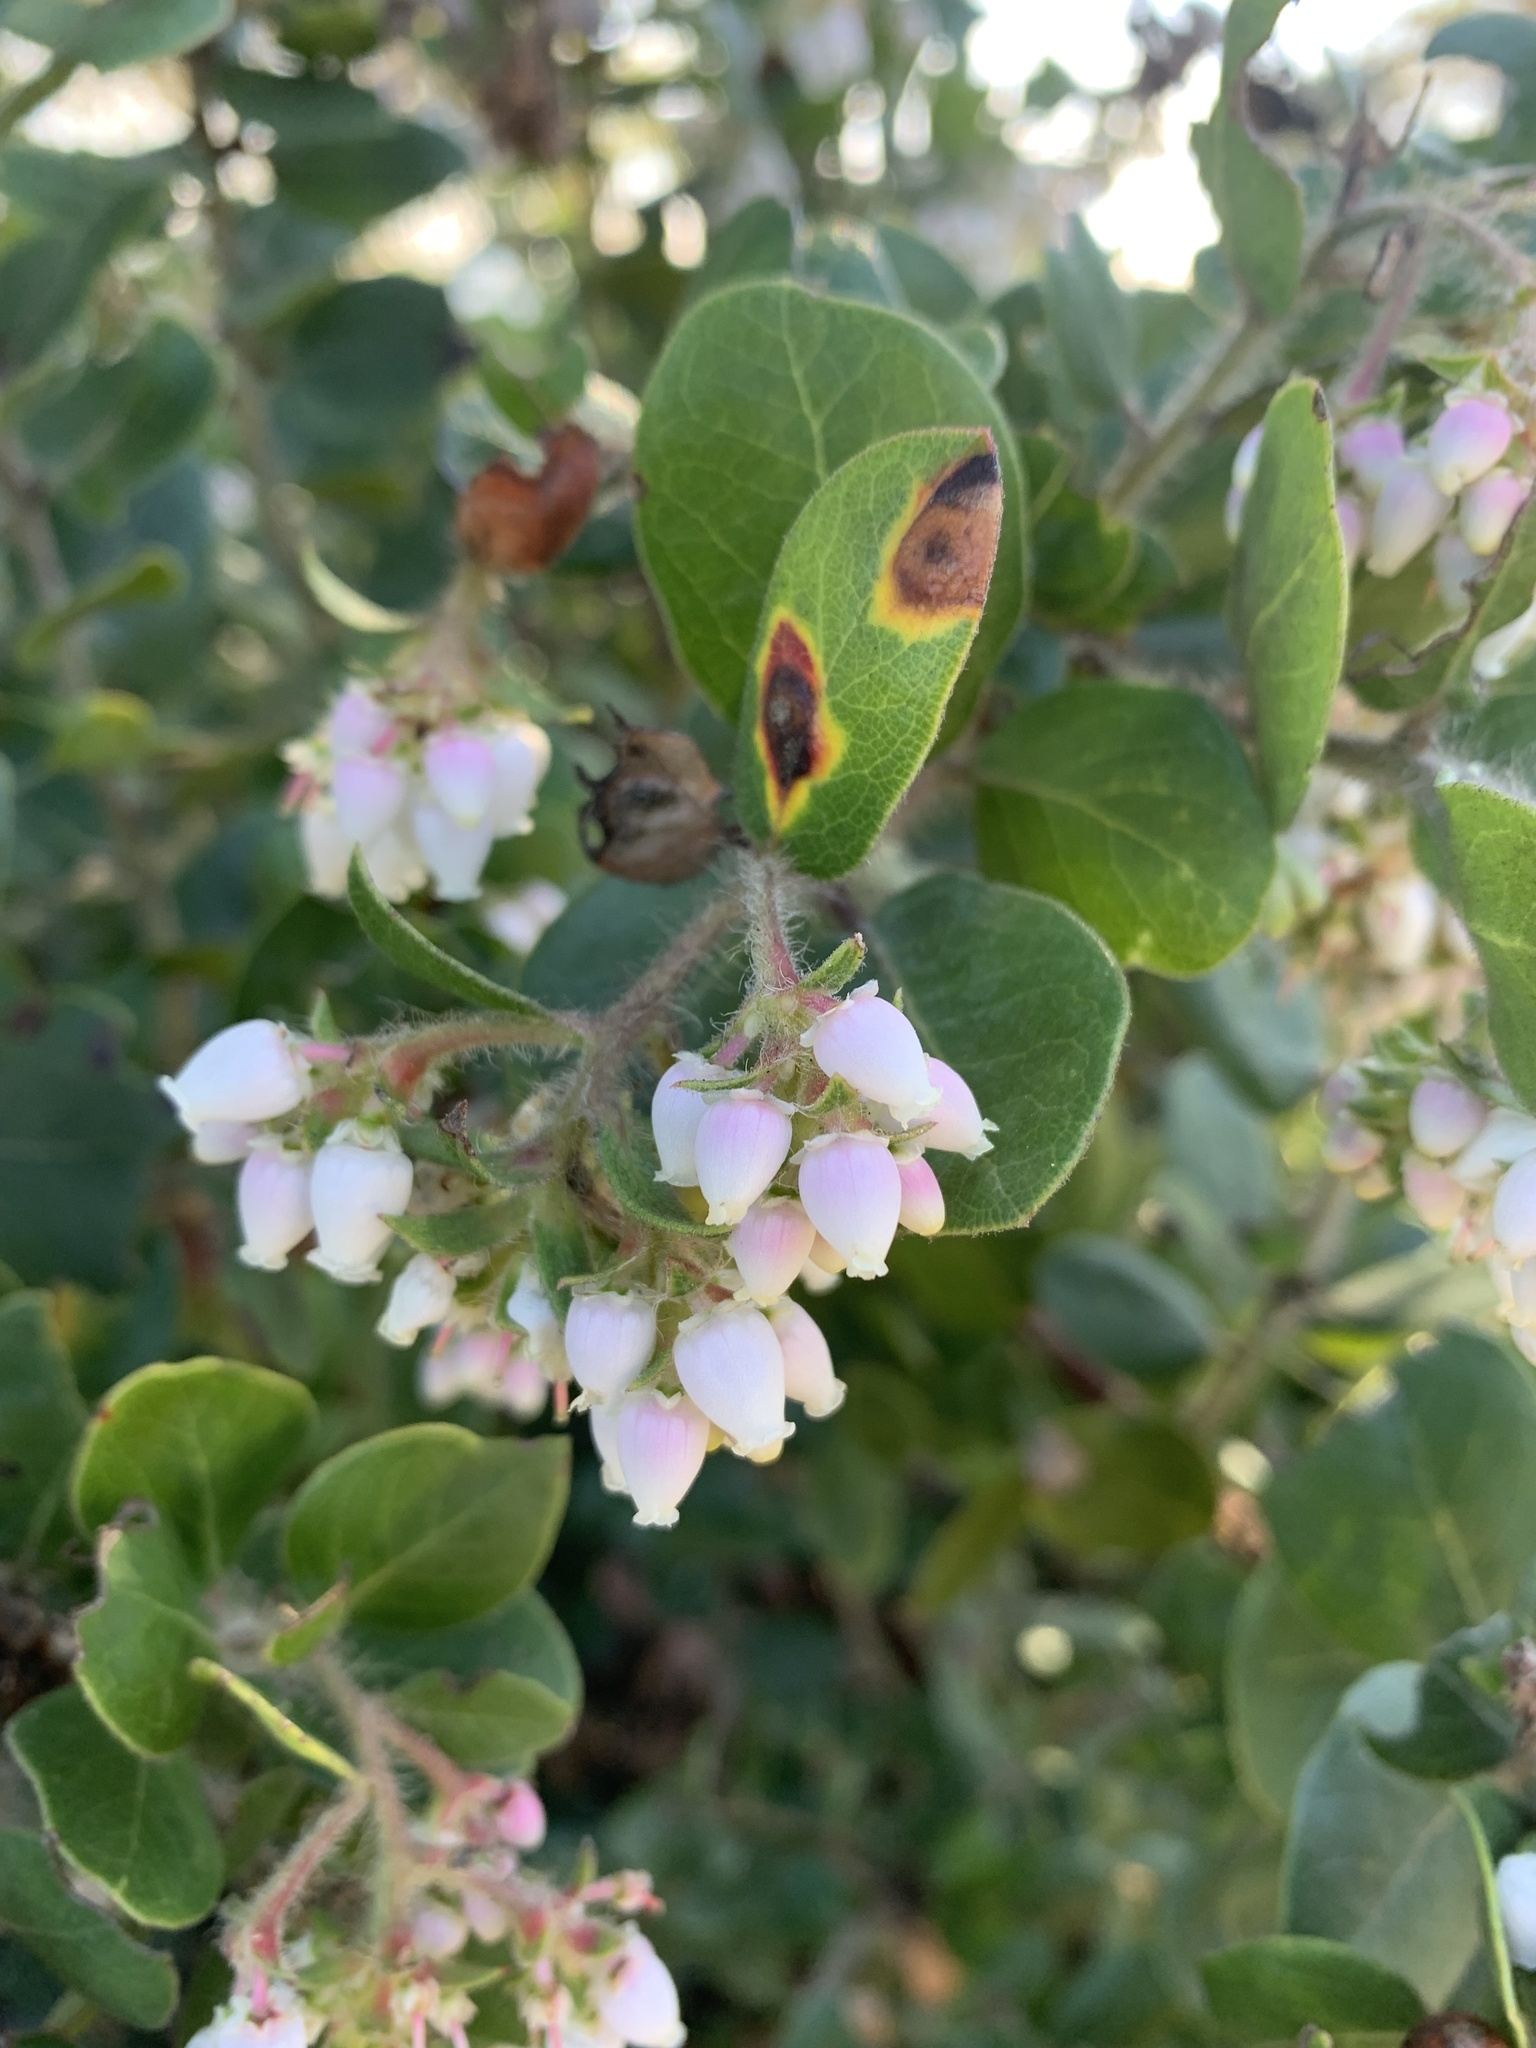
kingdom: Plantae
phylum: Tracheophyta
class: Magnoliopsida
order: Ericales
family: Ericaceae
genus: Arctostaphylos
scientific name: Arctostaphylos crustacea
